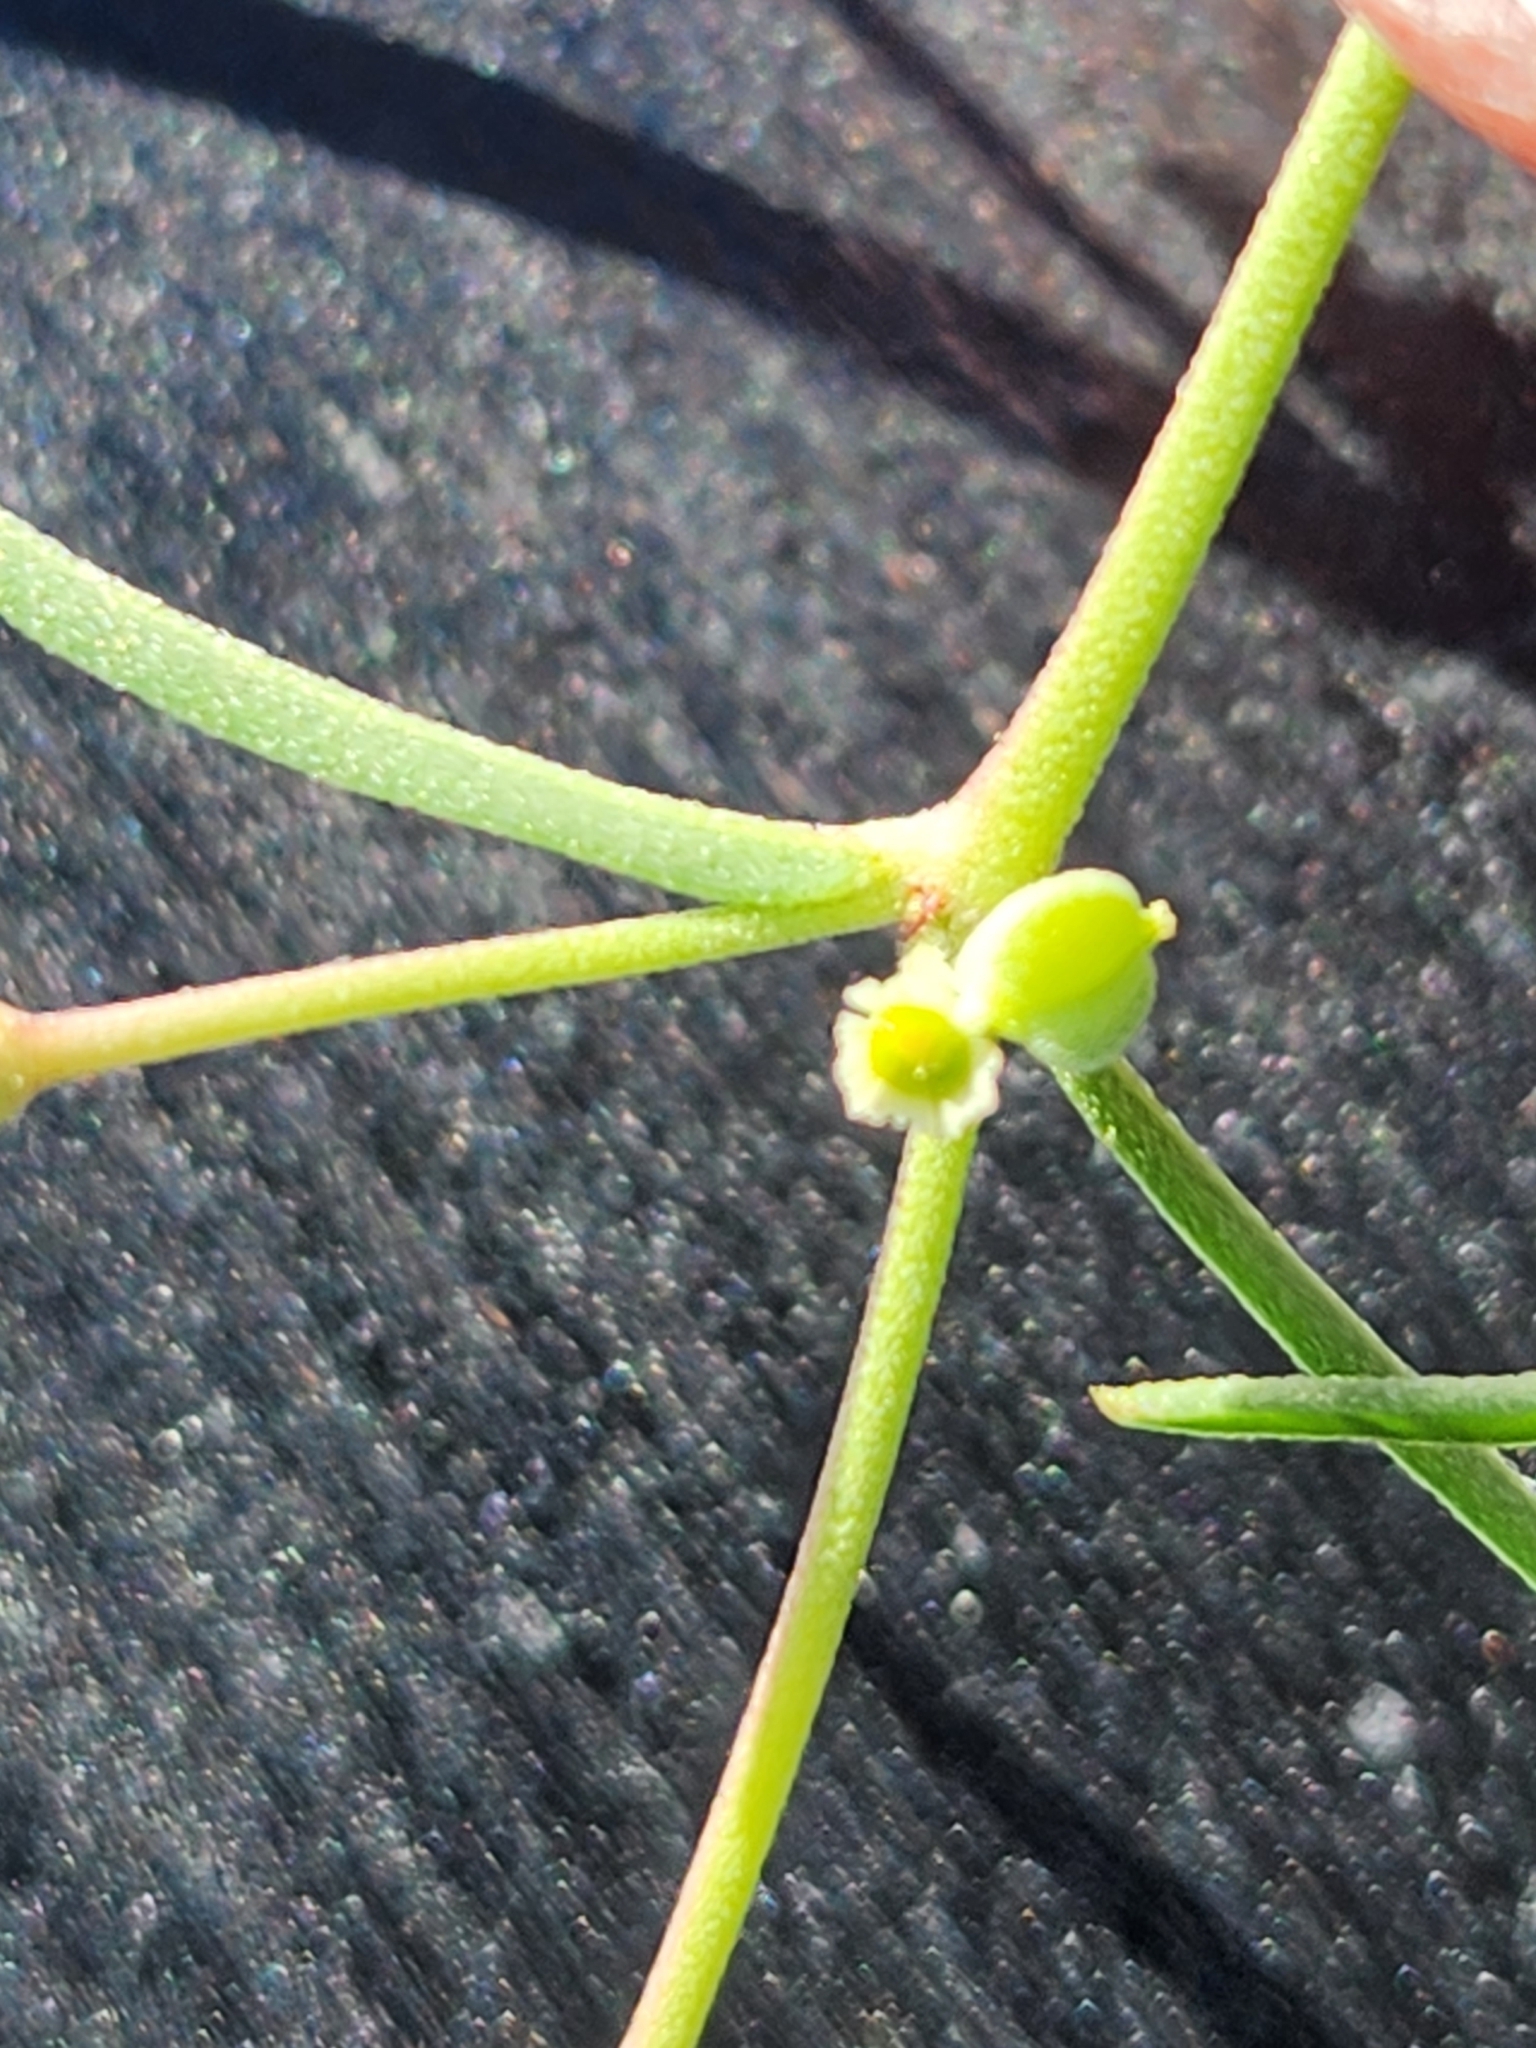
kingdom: Plantae
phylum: Tracheophyta
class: Magnoliopsida
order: Malpighiales
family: Euphorbiaceae
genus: Euphorbia
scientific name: Euphorbia angusta
